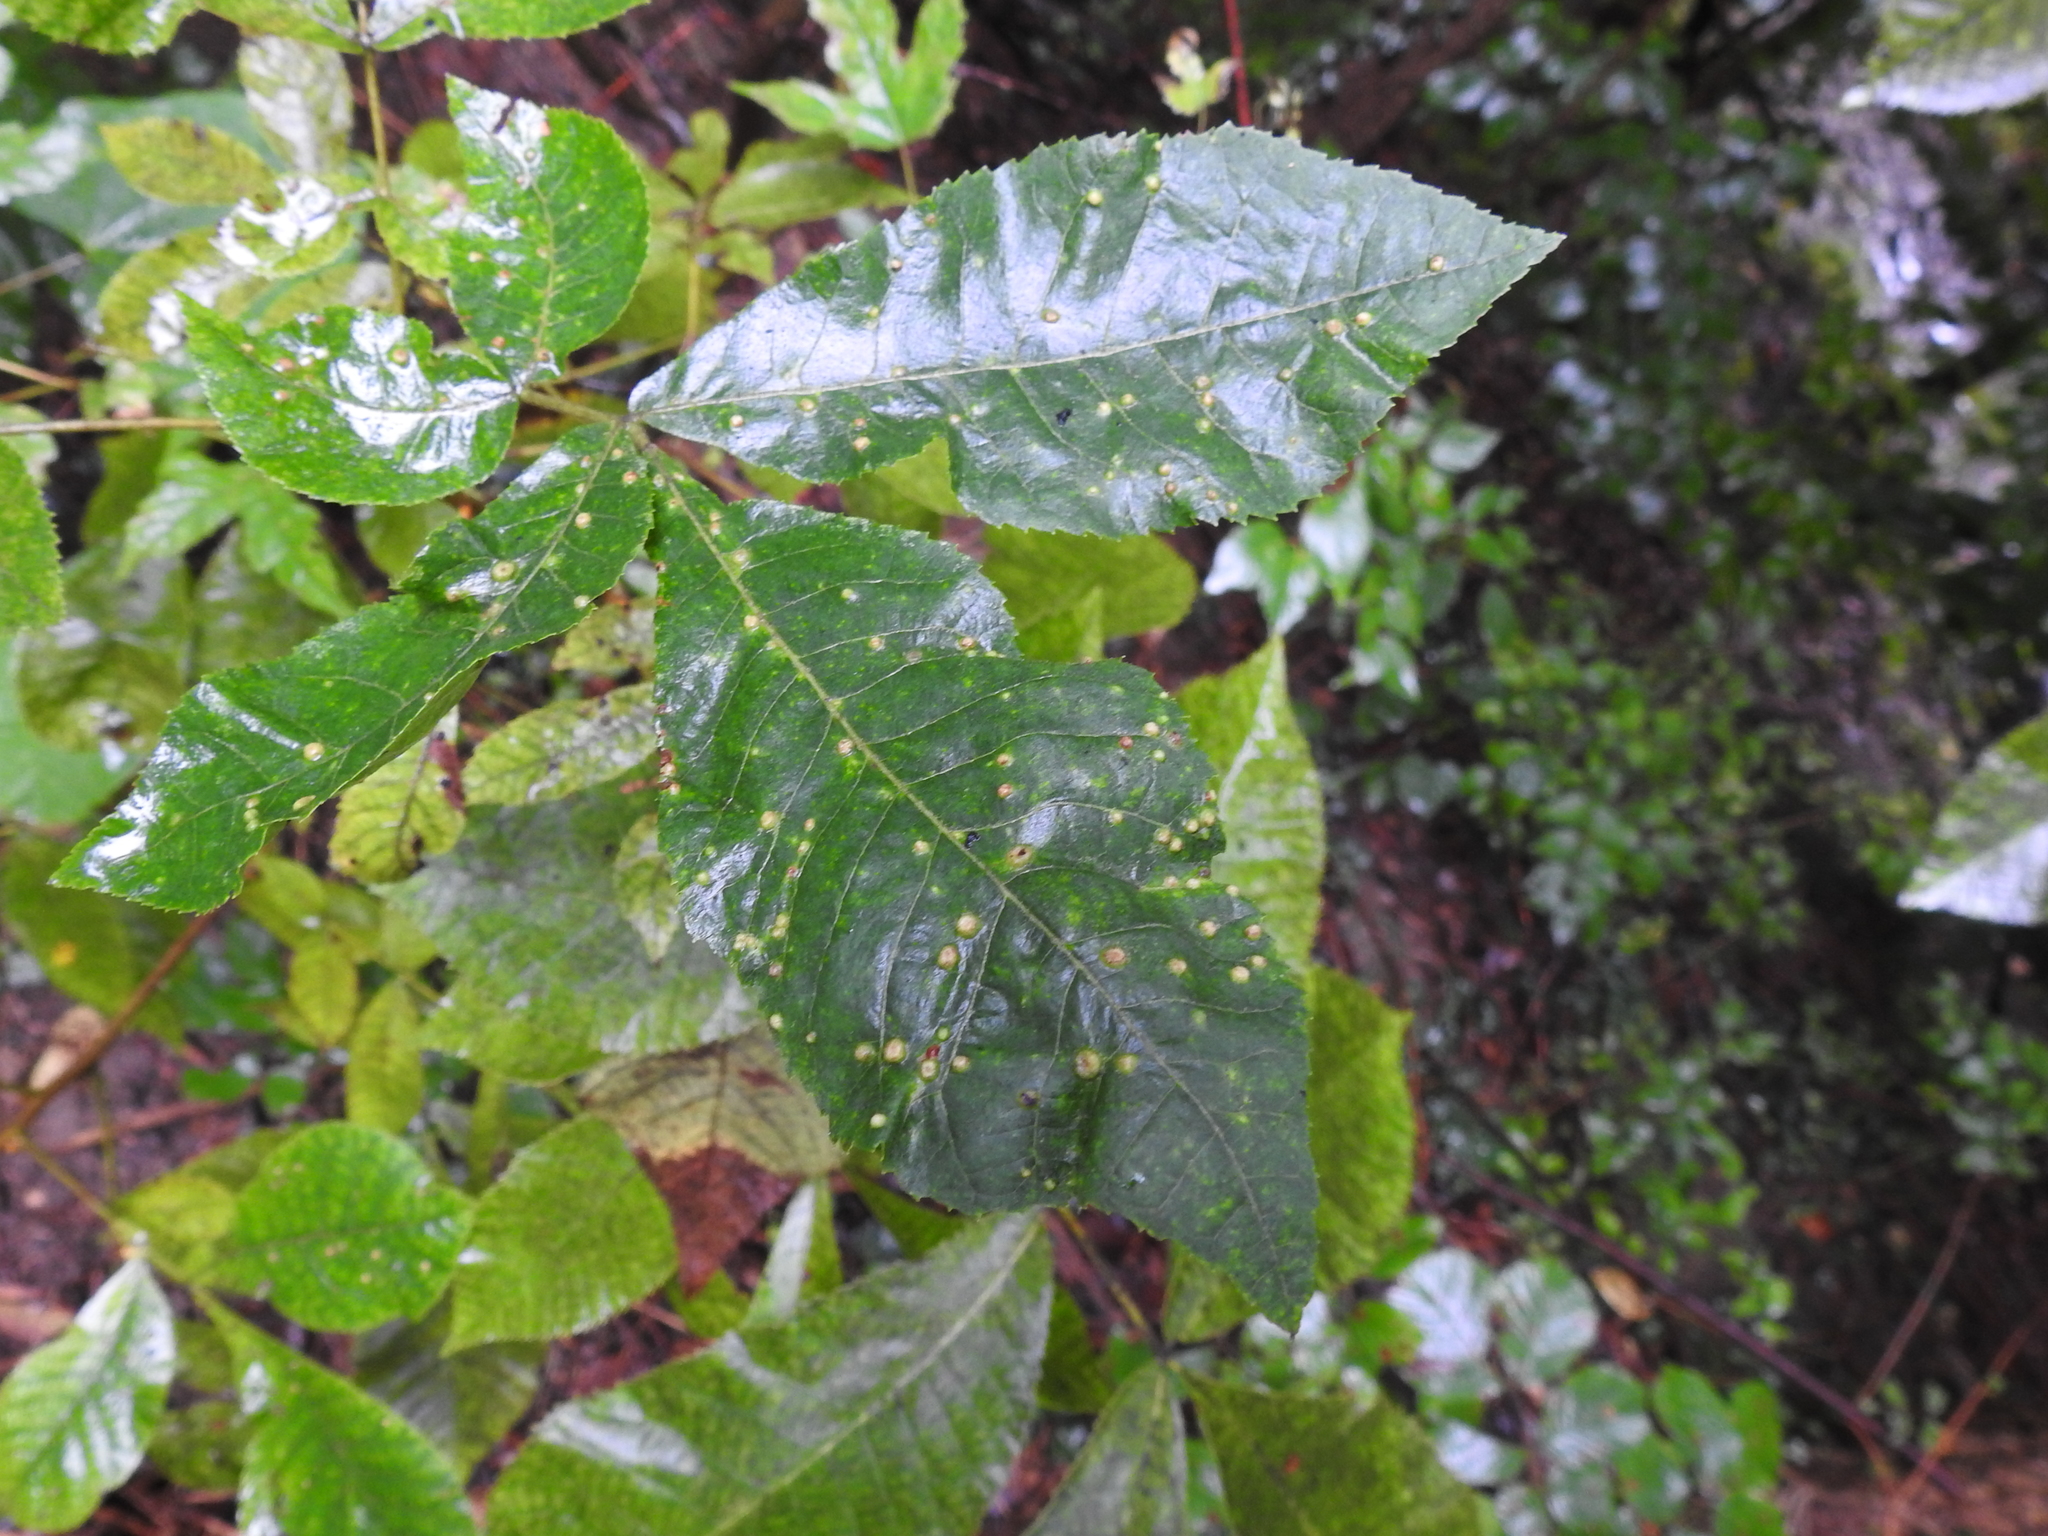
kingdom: Animalia
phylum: Arthropoda
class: Insecta
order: Hemiptera
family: Phylloxeridae
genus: Phylloxera
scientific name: Phylloxera caryae-semen
